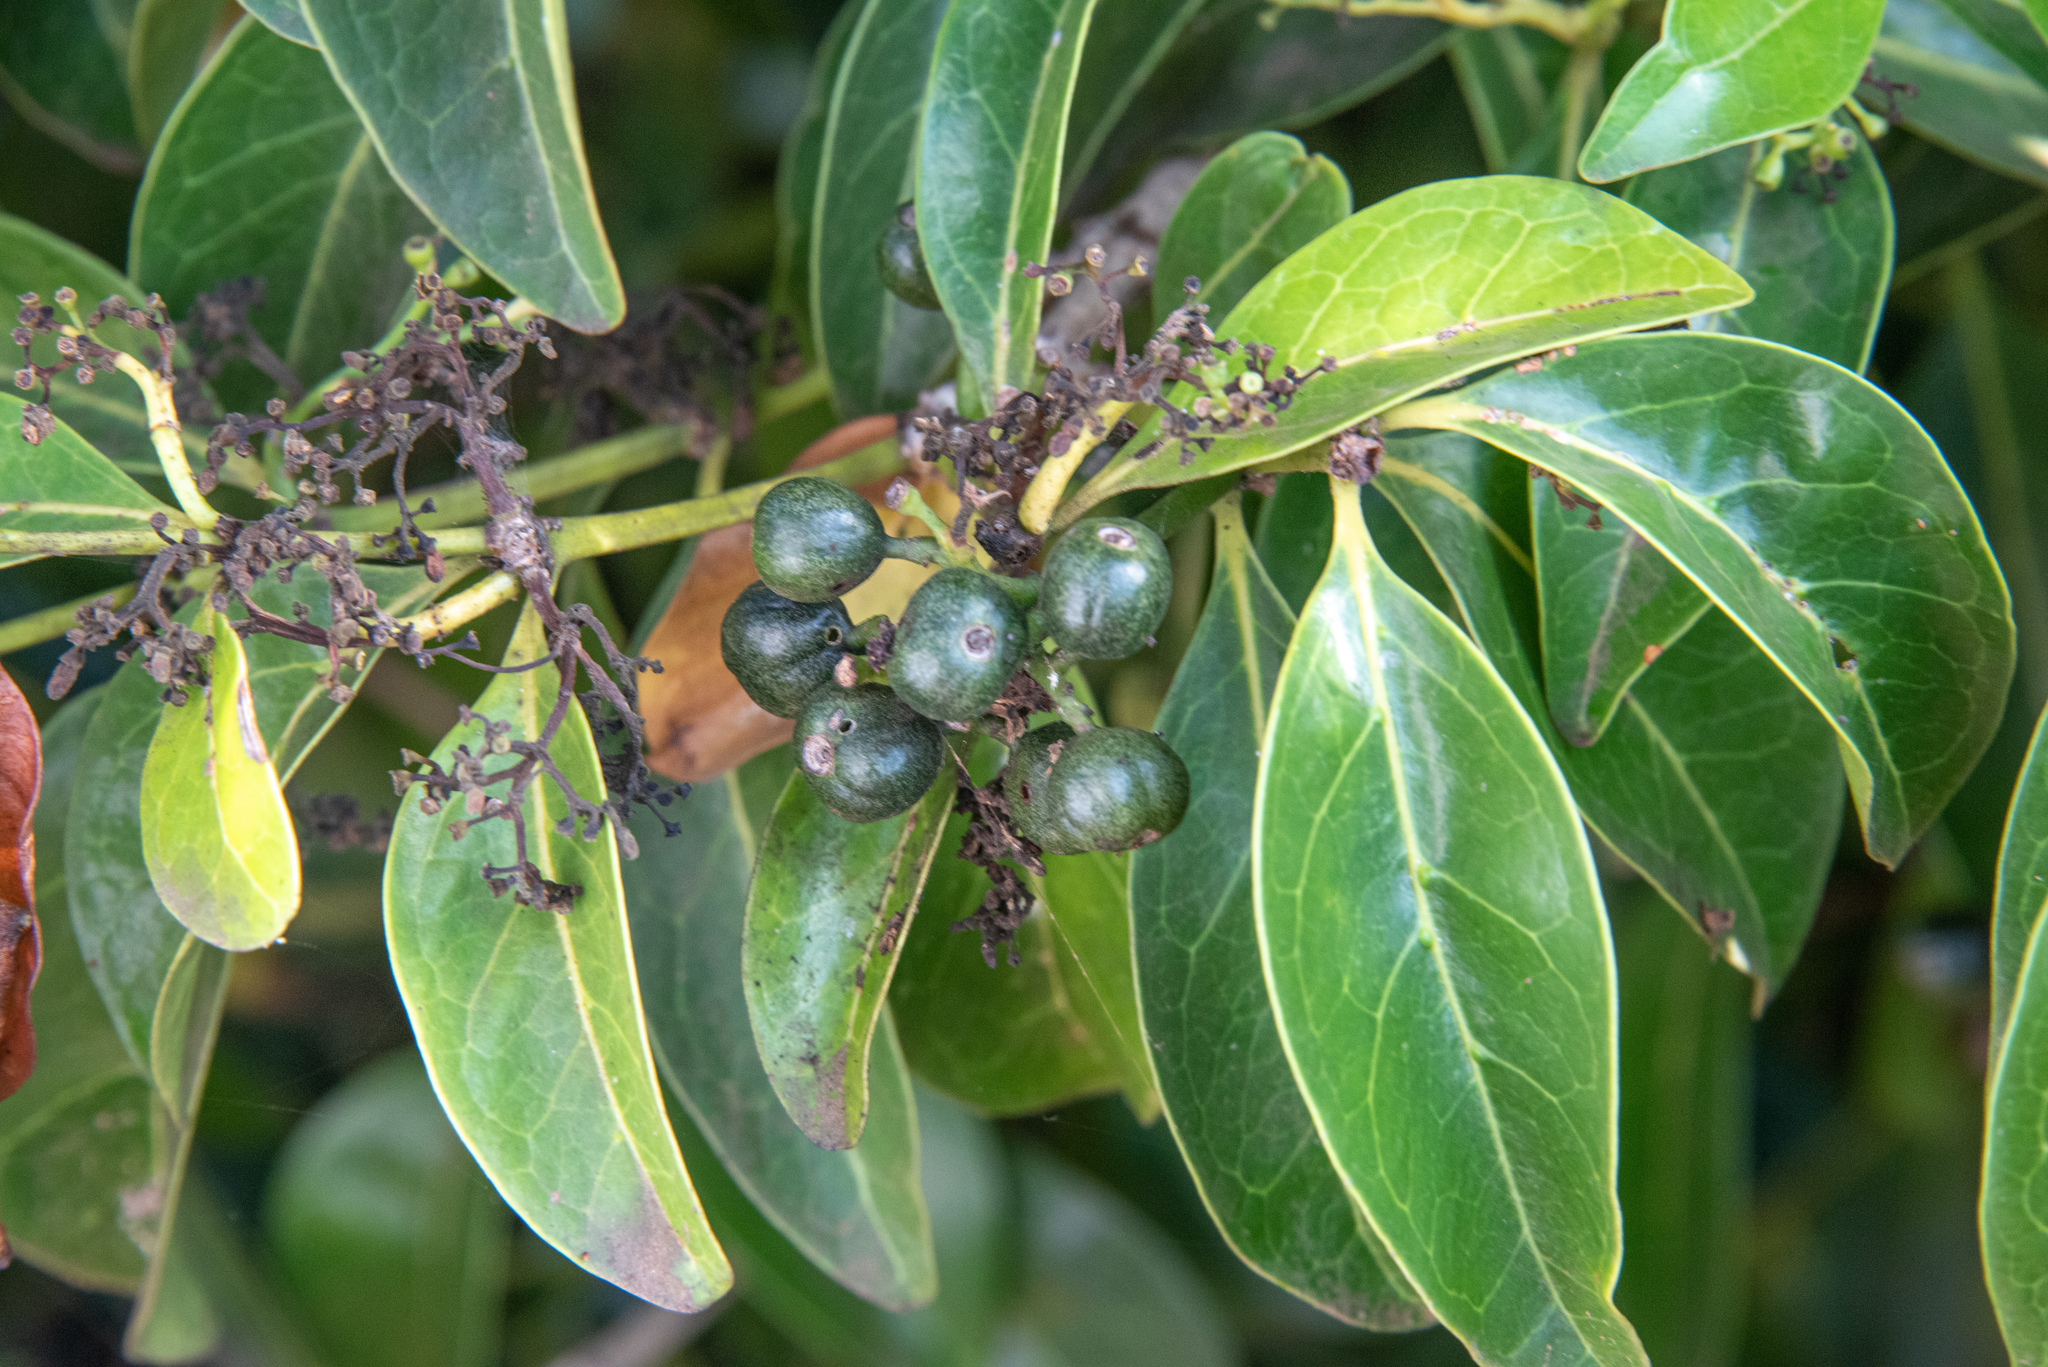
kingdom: Plantae
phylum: Tracheophyta
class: Magnoliopsida
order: Gentianales
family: Rubiaceae
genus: Psydrax
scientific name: Psydrax odoratus
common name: Alahe'e
